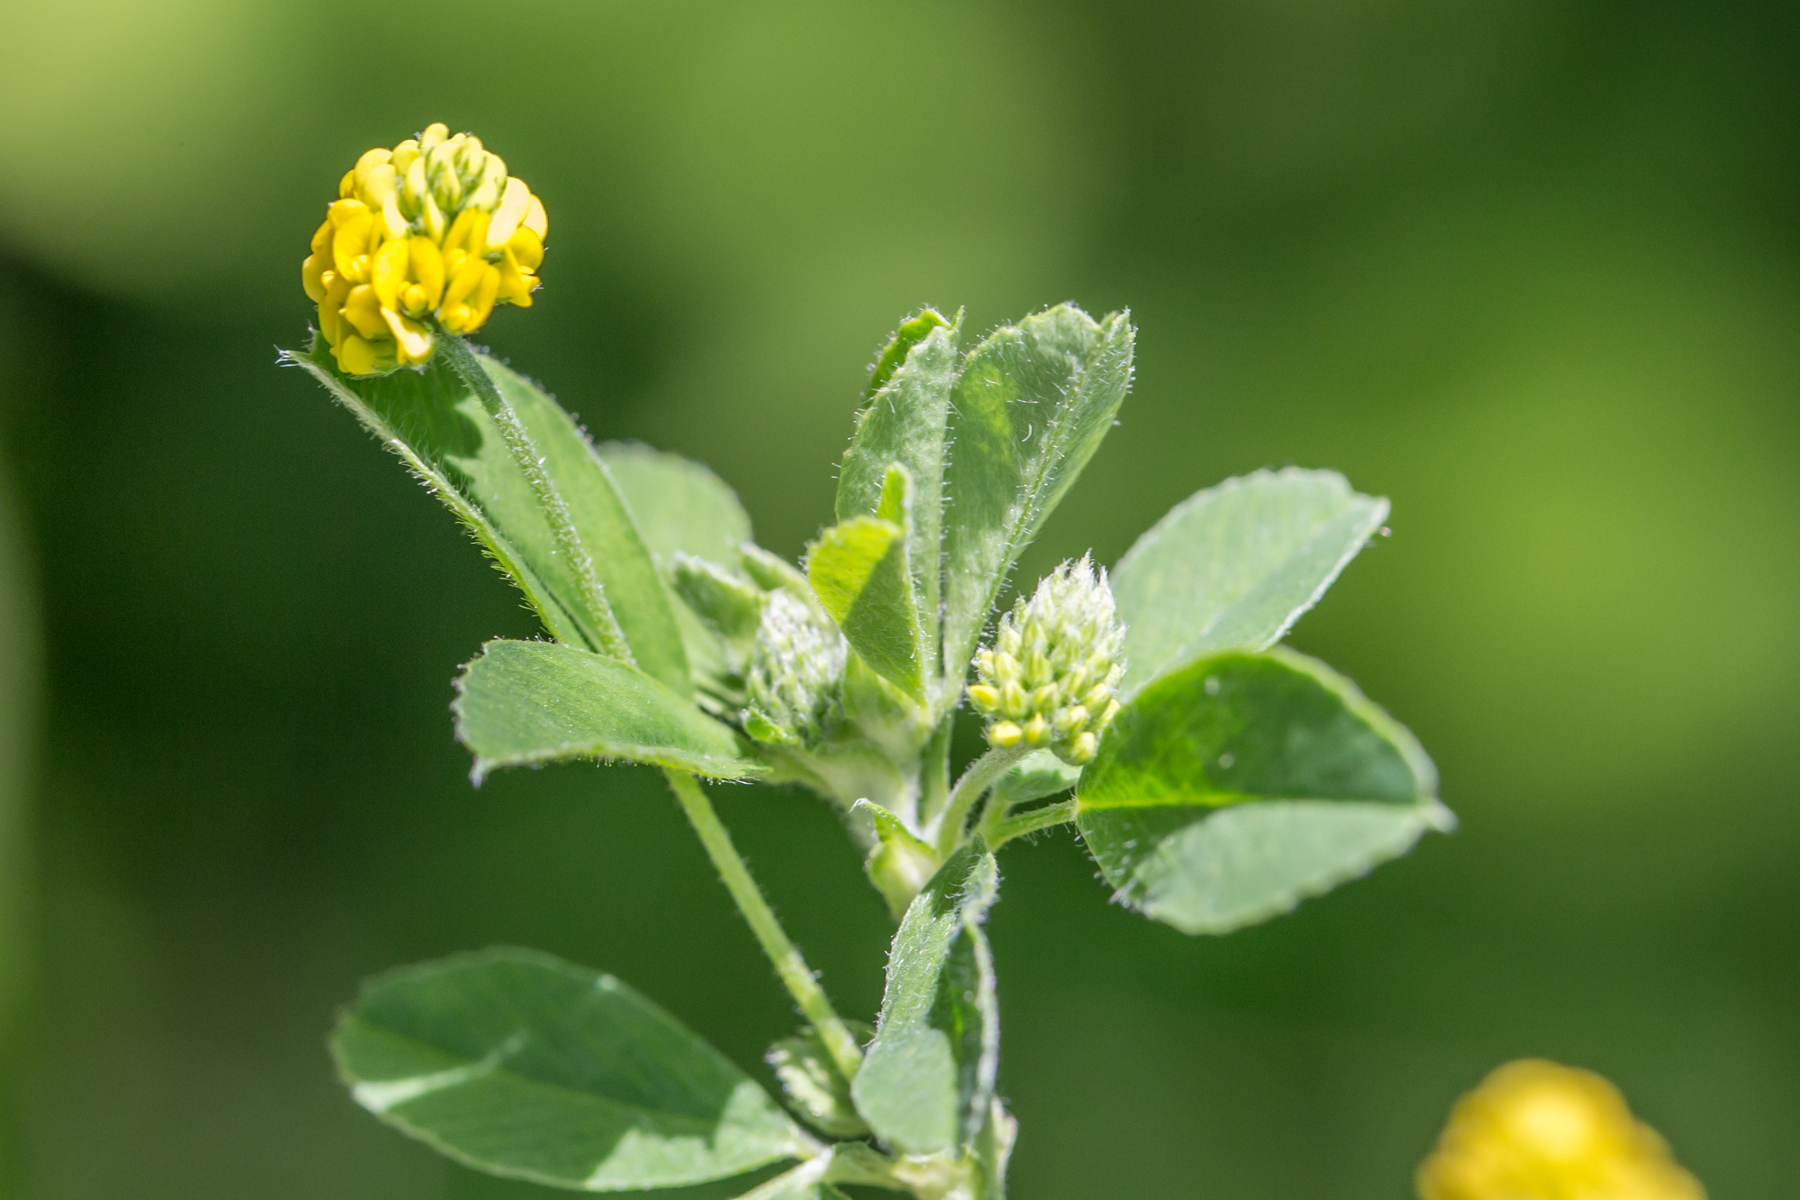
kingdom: Plantae
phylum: Tracheophyta
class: Magnoliopsida
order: Fabales
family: Fabaceae
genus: Medicago
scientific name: Medicago lupulina
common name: Black medick
